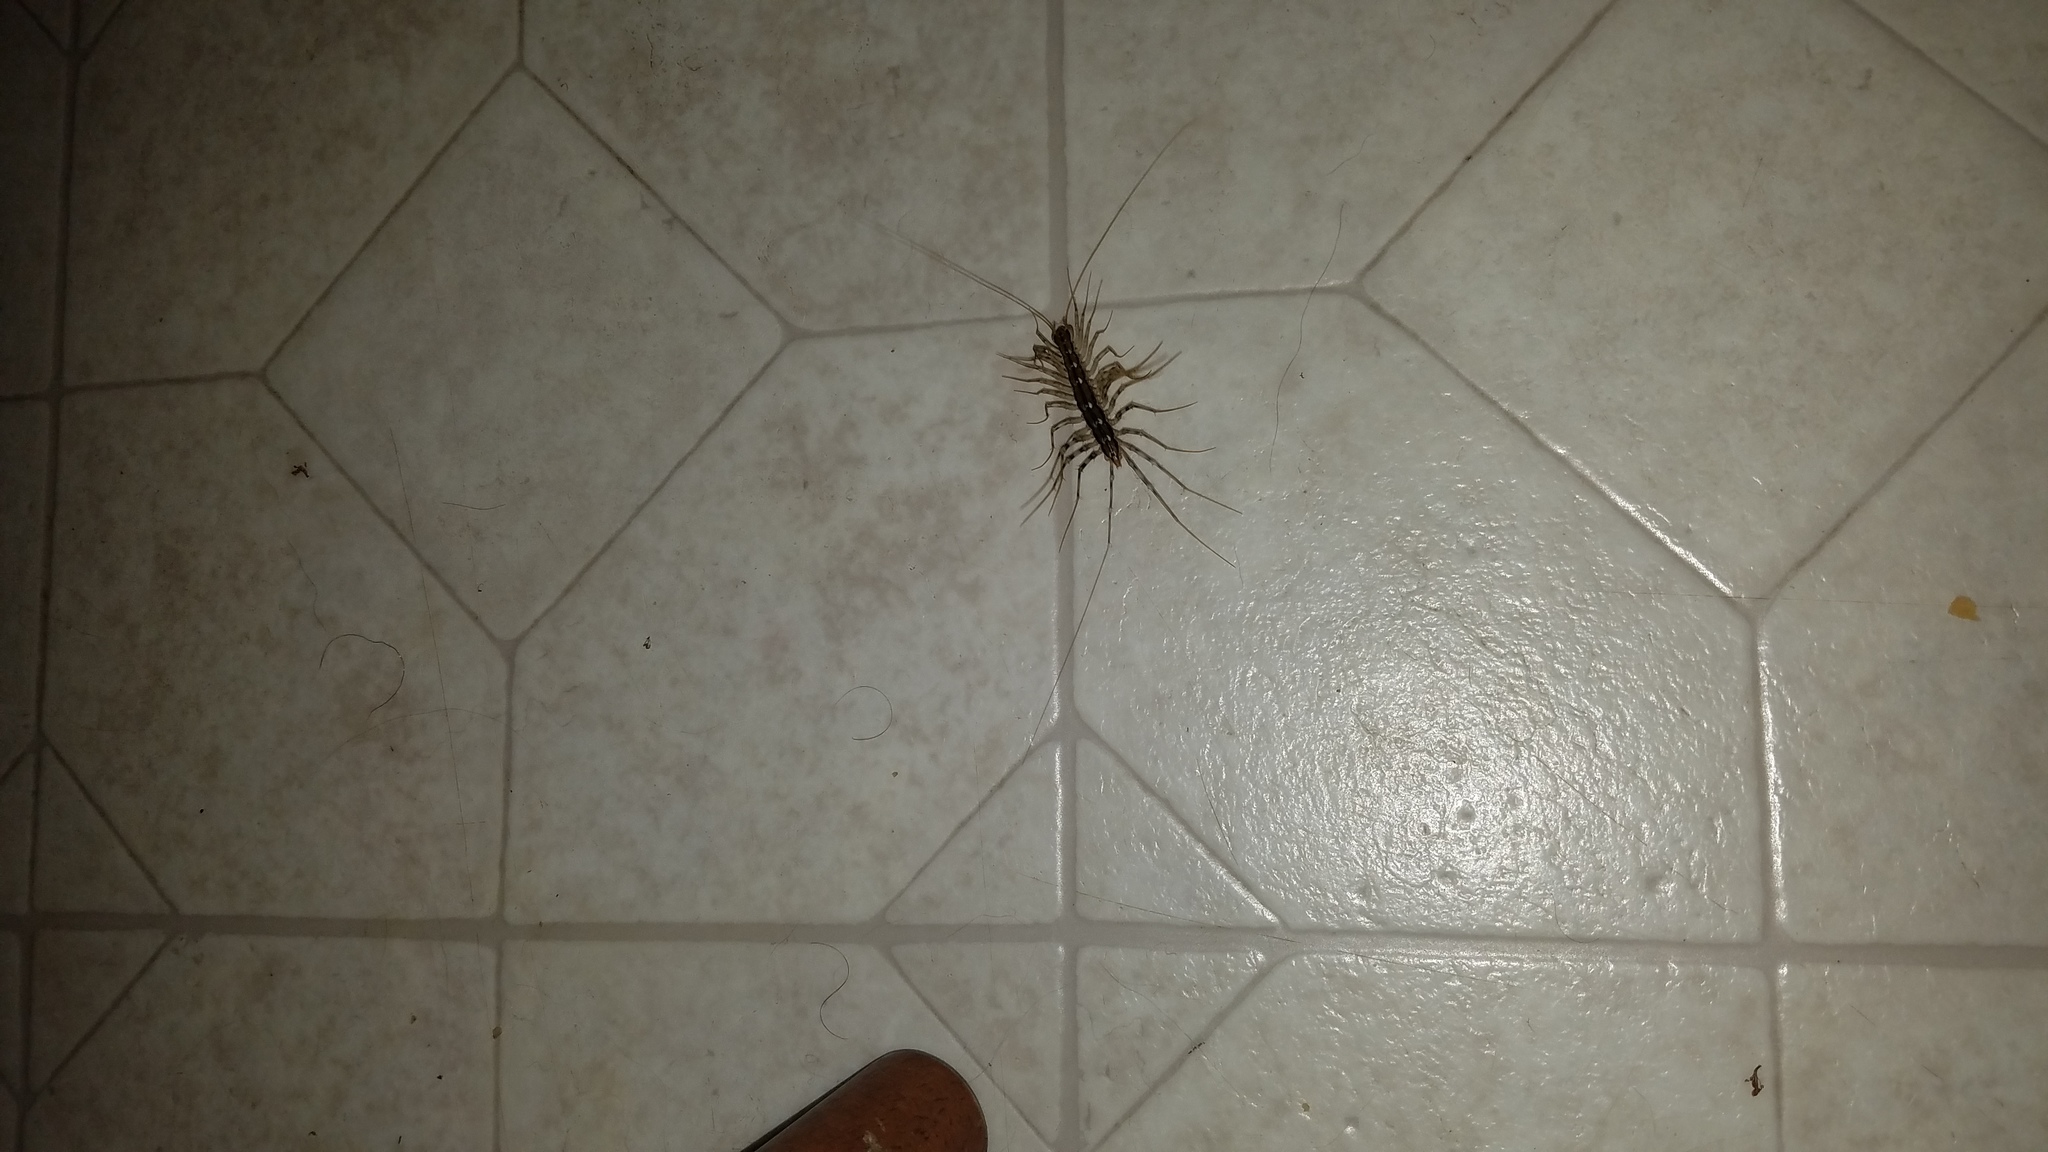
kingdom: Animalia
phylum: Arthropoda
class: Chilopoda
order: Scutigeromorpha
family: Scutigeridae
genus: Scutigera
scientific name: Scutigera coleoptrata
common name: House centipede
